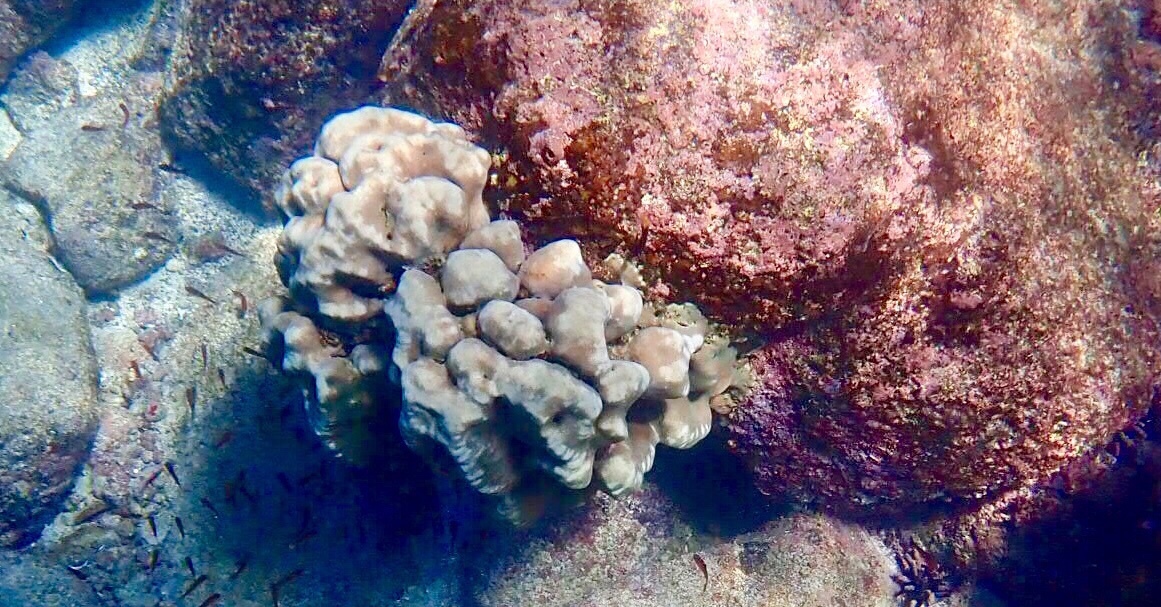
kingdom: Animalia
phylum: Cnidaria
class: Anthozoa
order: Scleractinia
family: Agariciidae
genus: Pavona
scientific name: Pavona duerdeni
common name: Leaf coral
